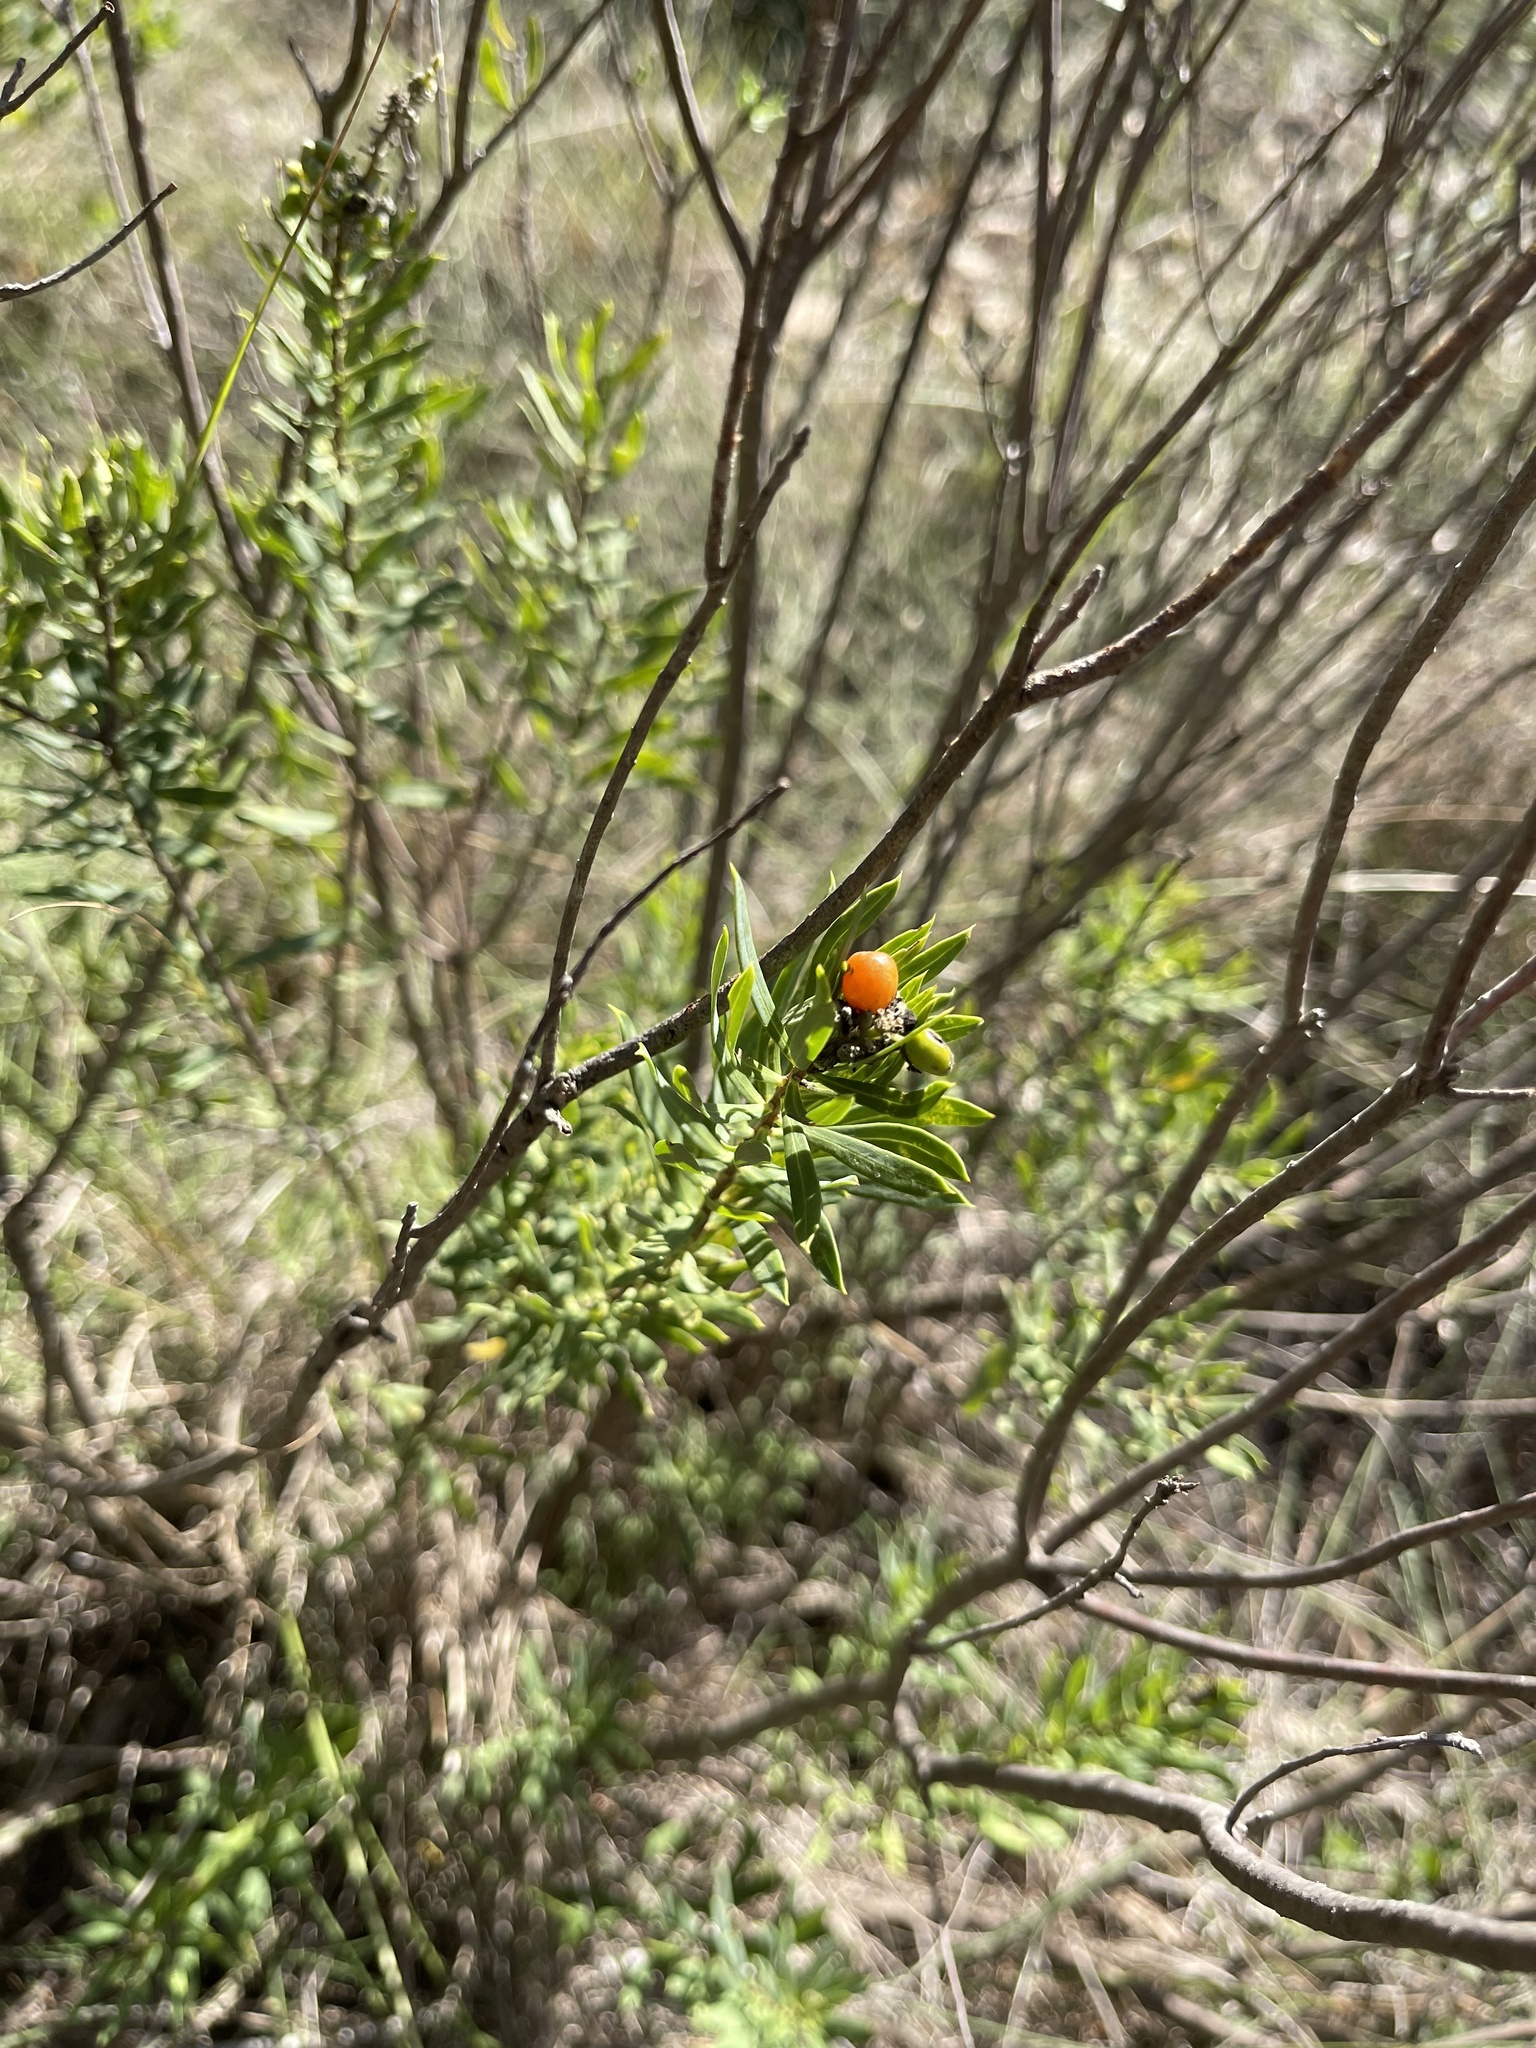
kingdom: Plantae
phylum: Tracheophyta
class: Magnoliopsida
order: Malvales
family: Thymelaeaceae
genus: Daphne
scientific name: Daphne gnidium
